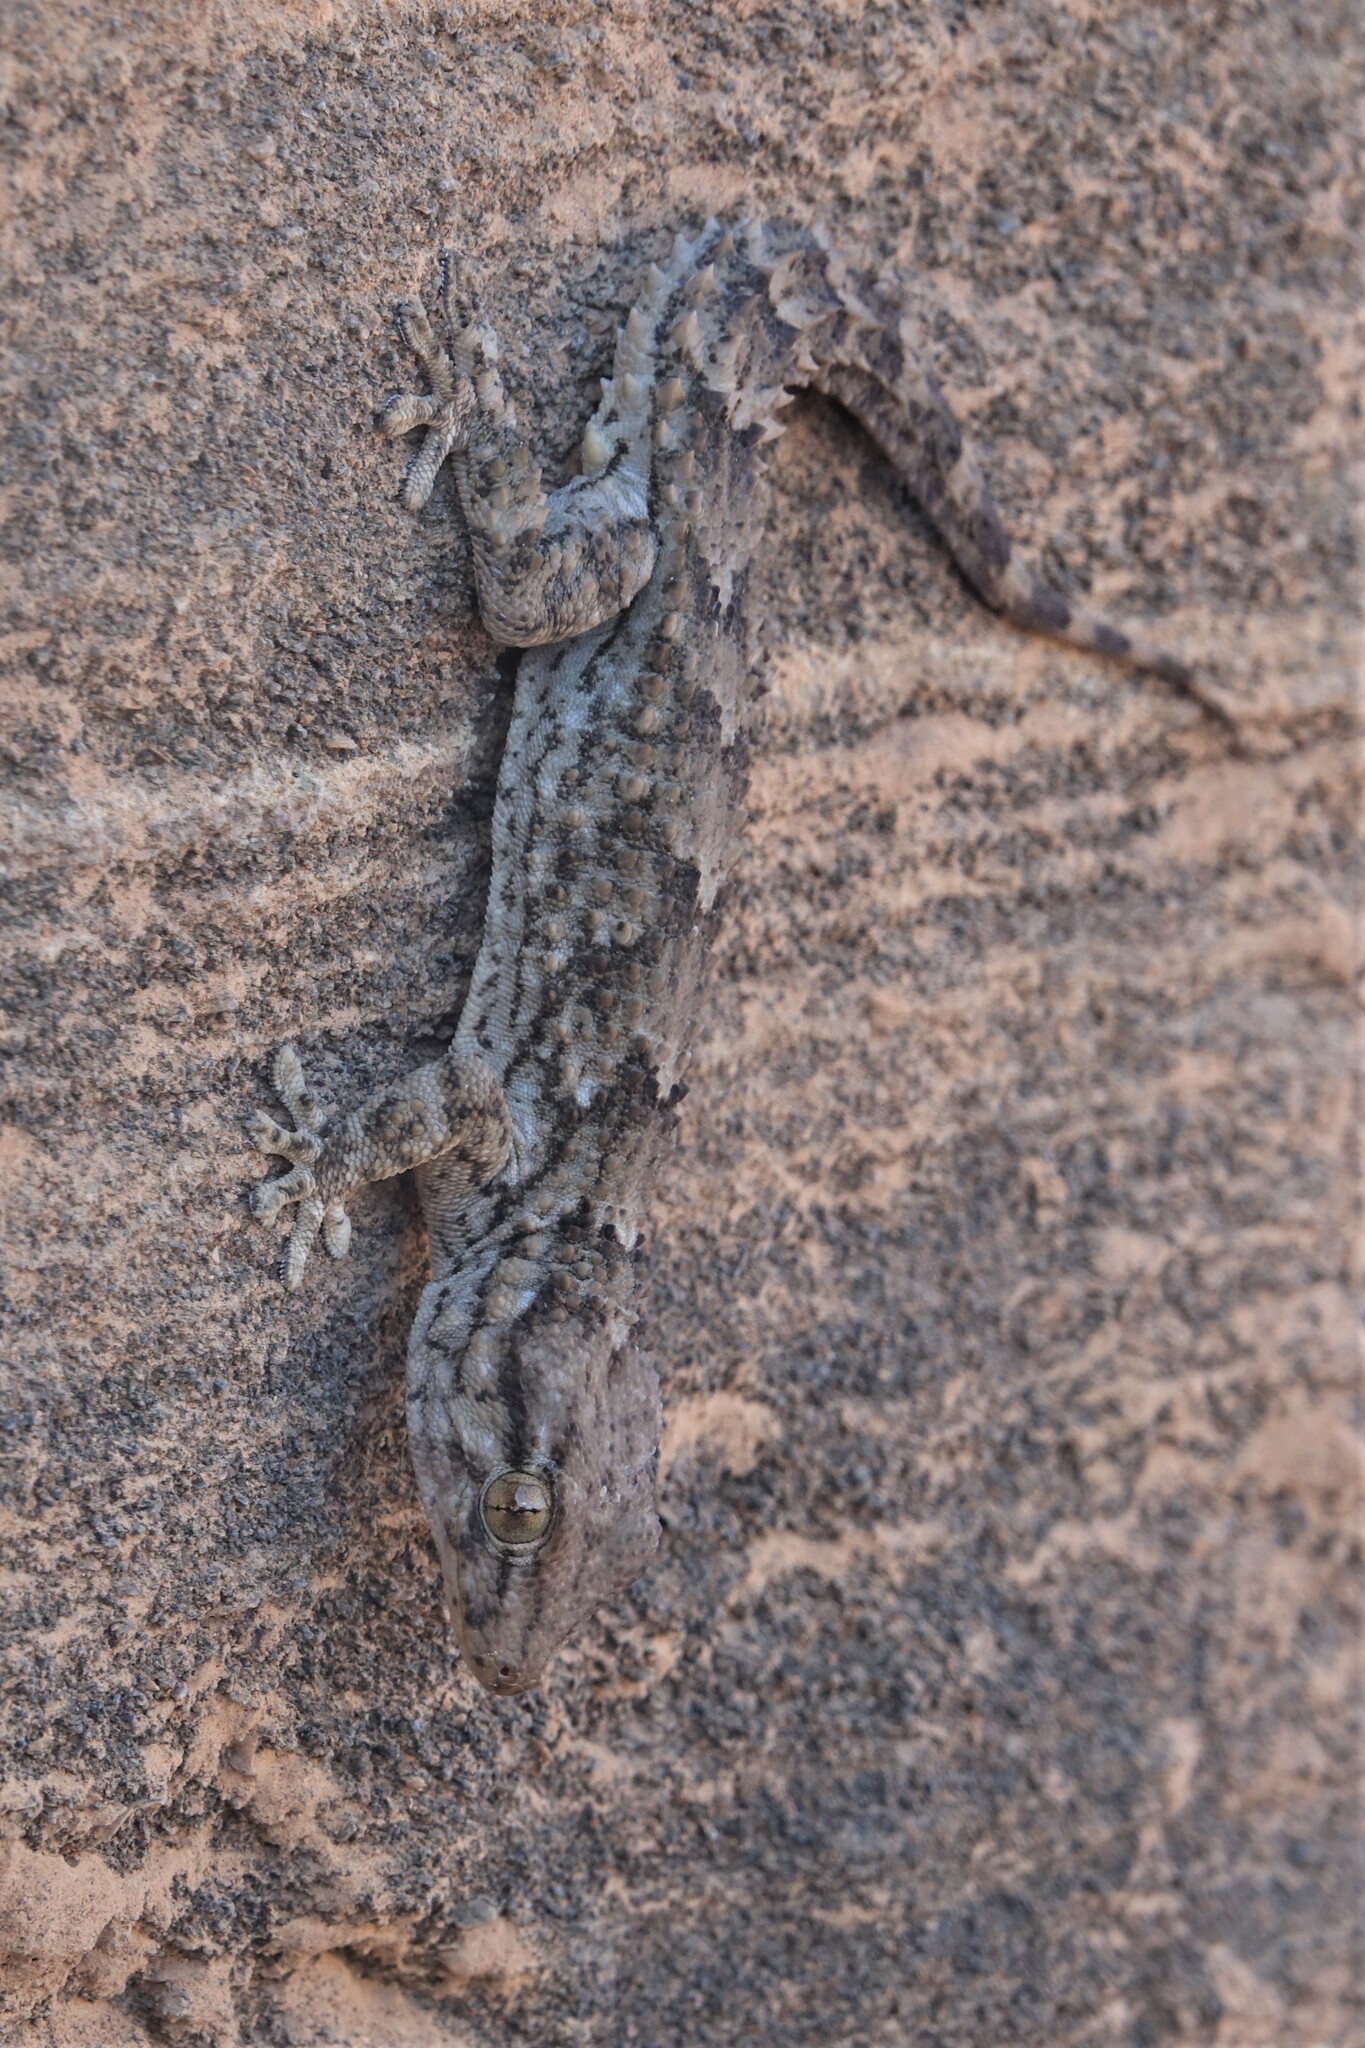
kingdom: Animalia
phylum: Chordata
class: Squamata
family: Phyllodactylidae
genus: Tarentola
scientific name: Tarentola angustimentalis
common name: East canary gecko
